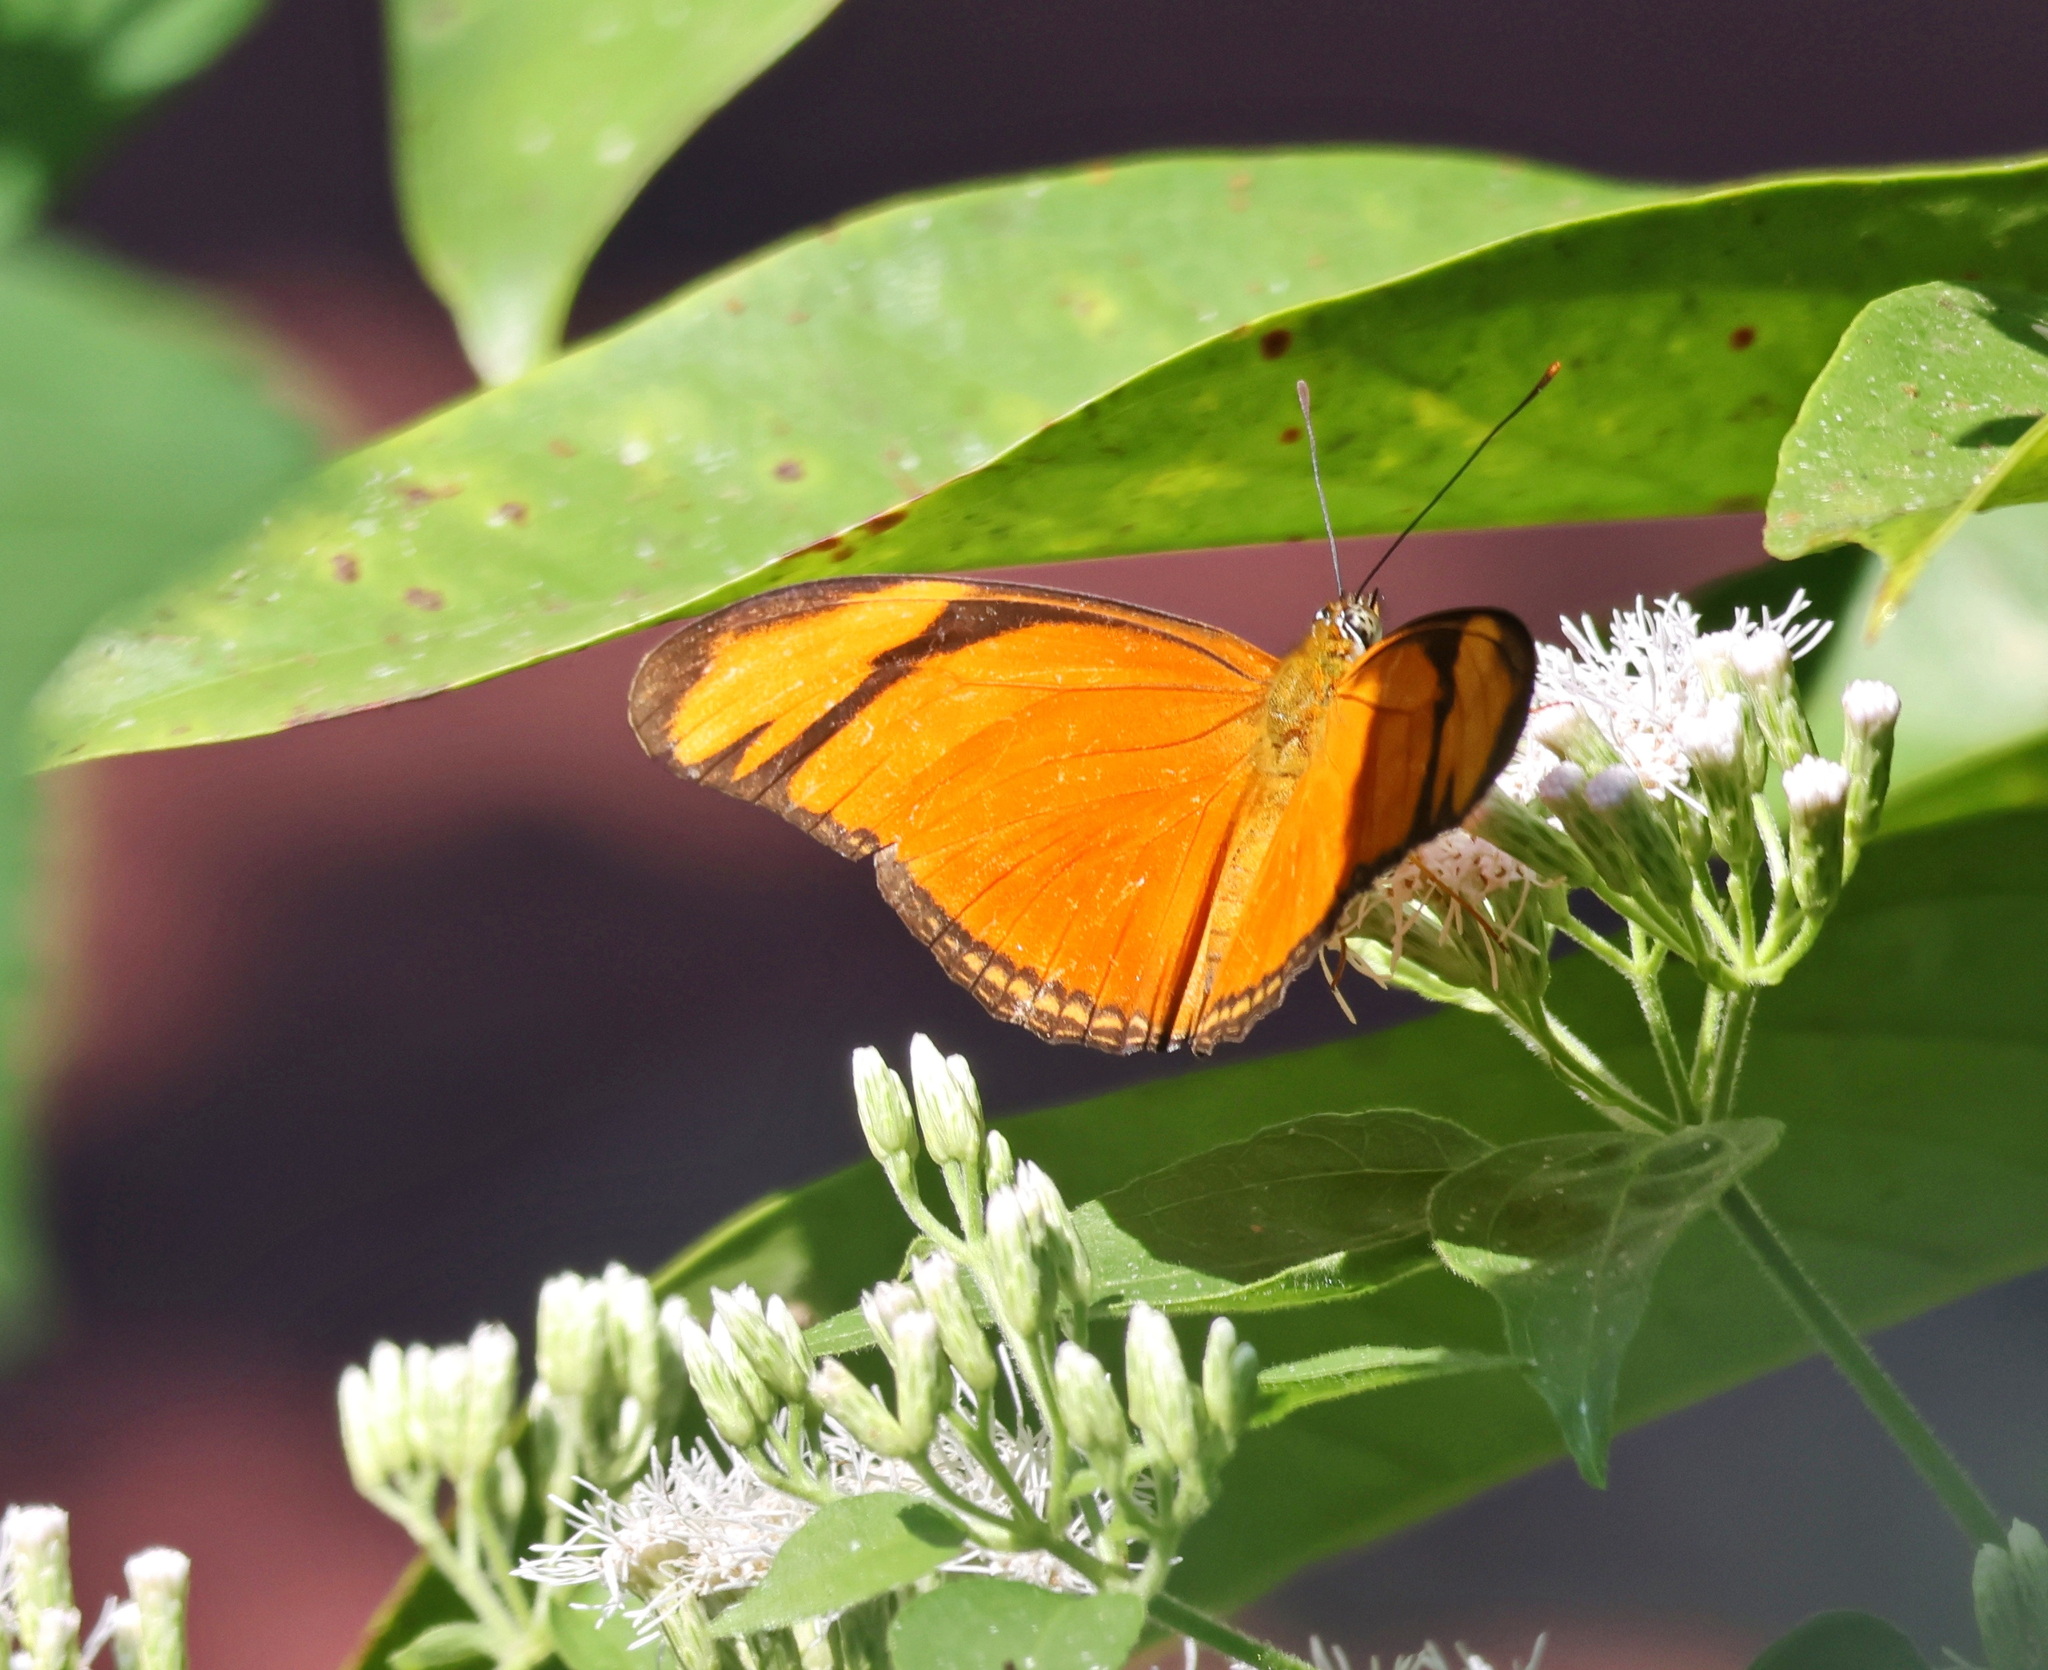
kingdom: Animalia
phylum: Arthropoda
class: Insecta
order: Lepidoptera
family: Nymphalidae
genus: Dryas
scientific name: Dryas iulia
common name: Flambeau
